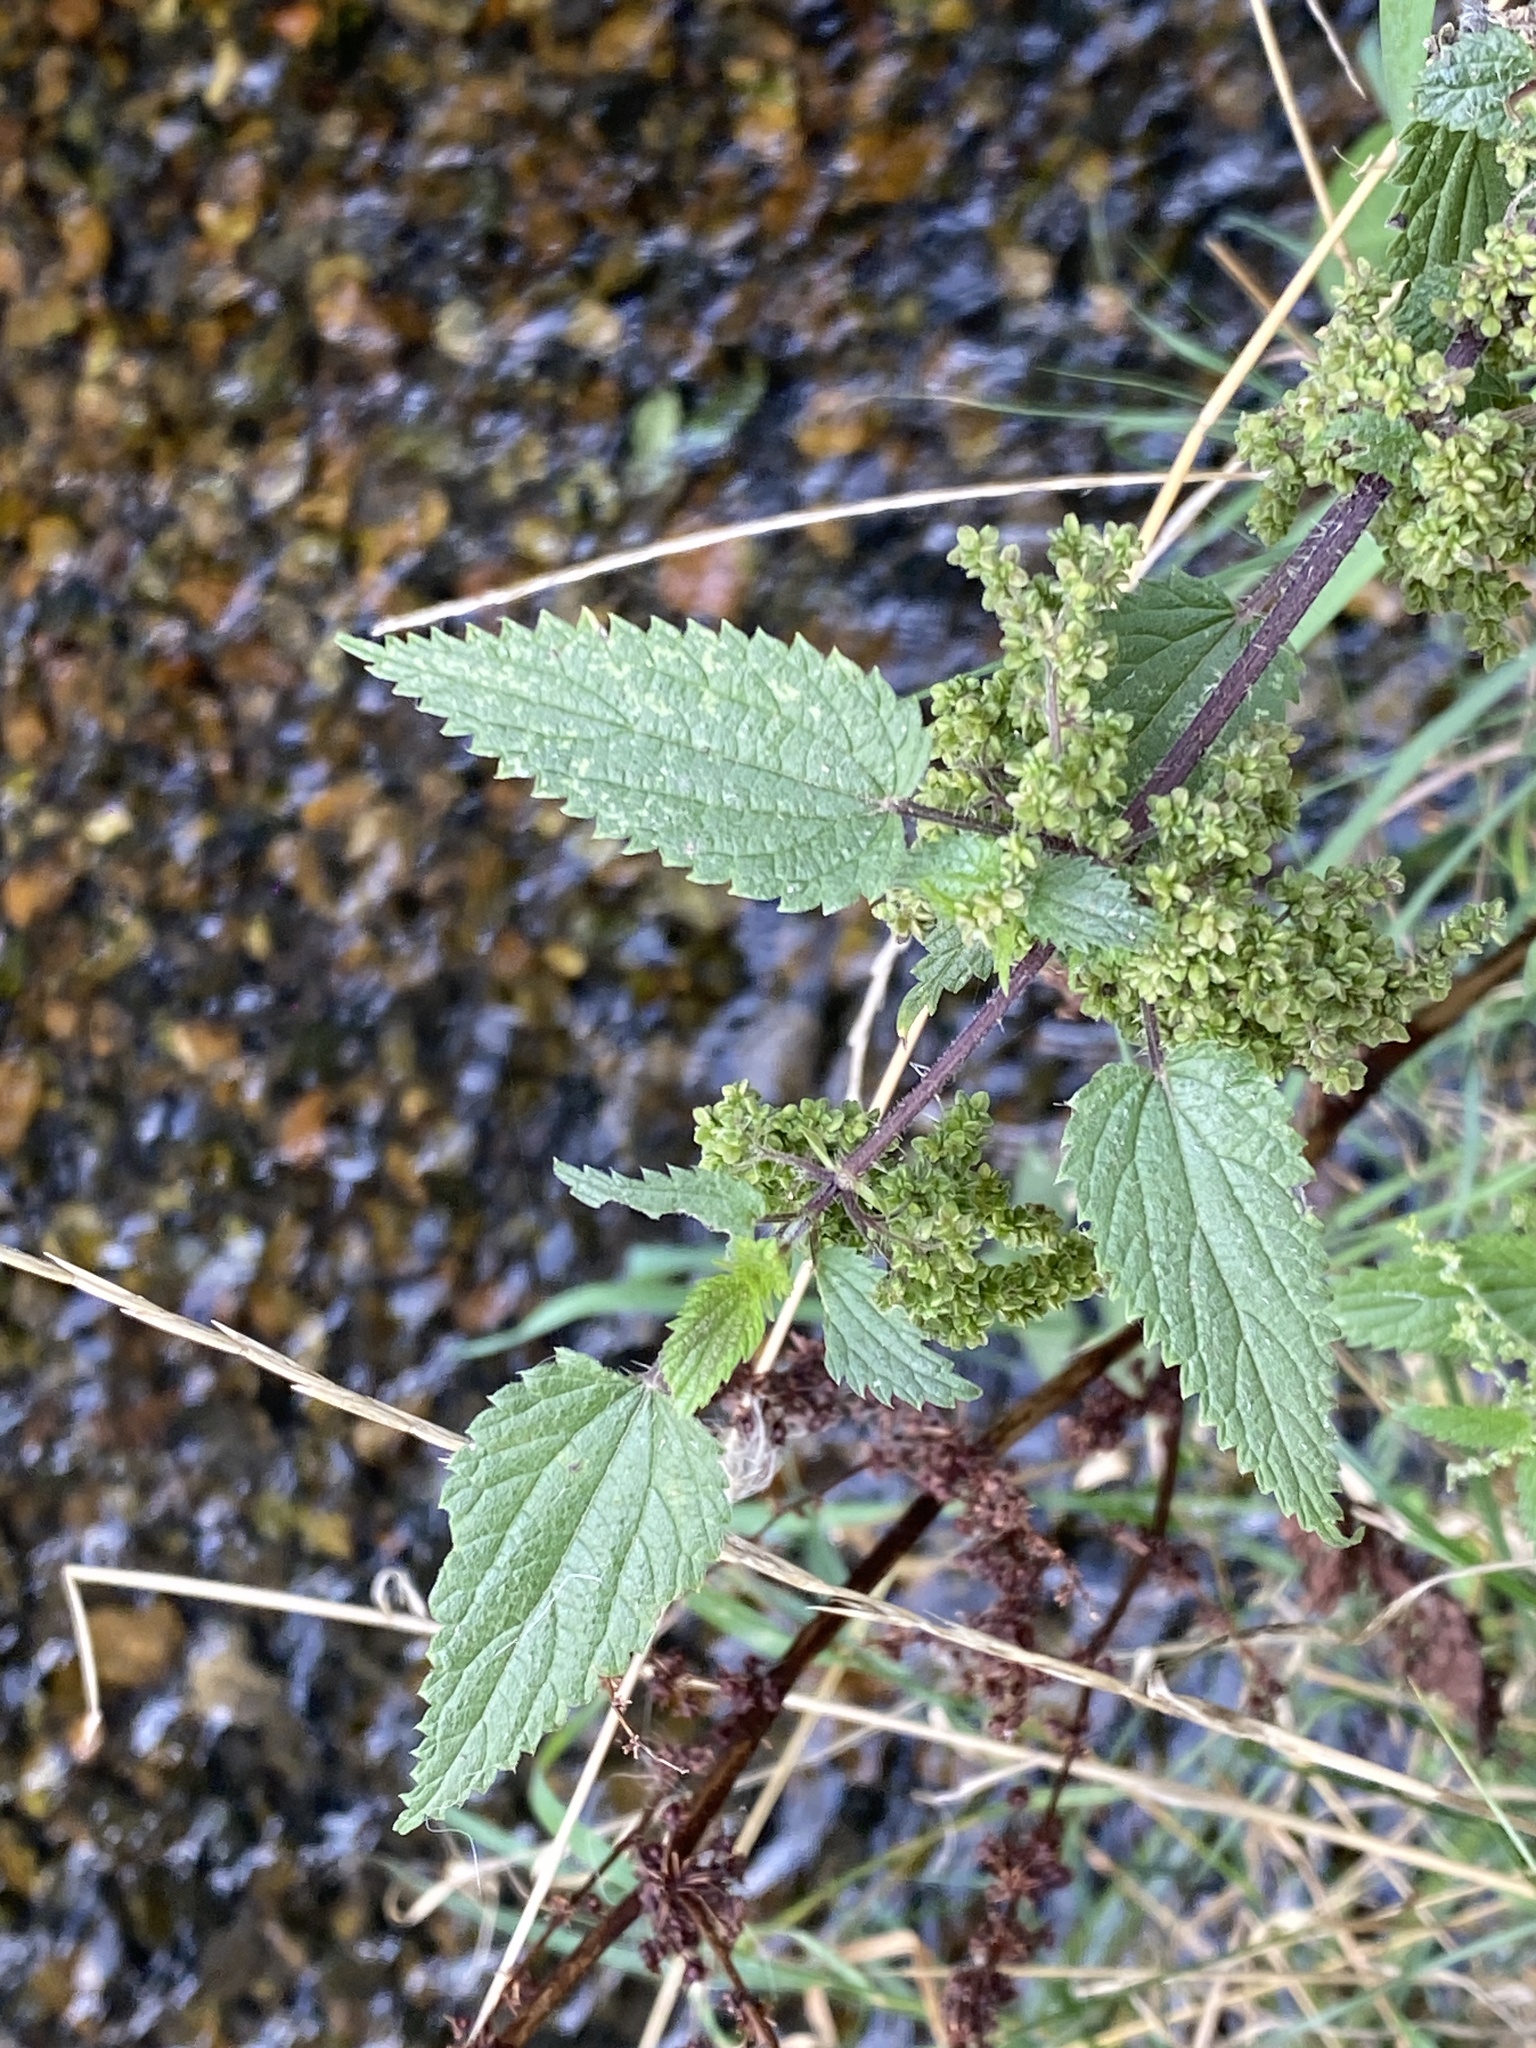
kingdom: Plantae
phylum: Tracheophyta
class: Magnoliopsida
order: Rosales
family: Urticaceae
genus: Urtica
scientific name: Urtica dioica
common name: Common nettle
